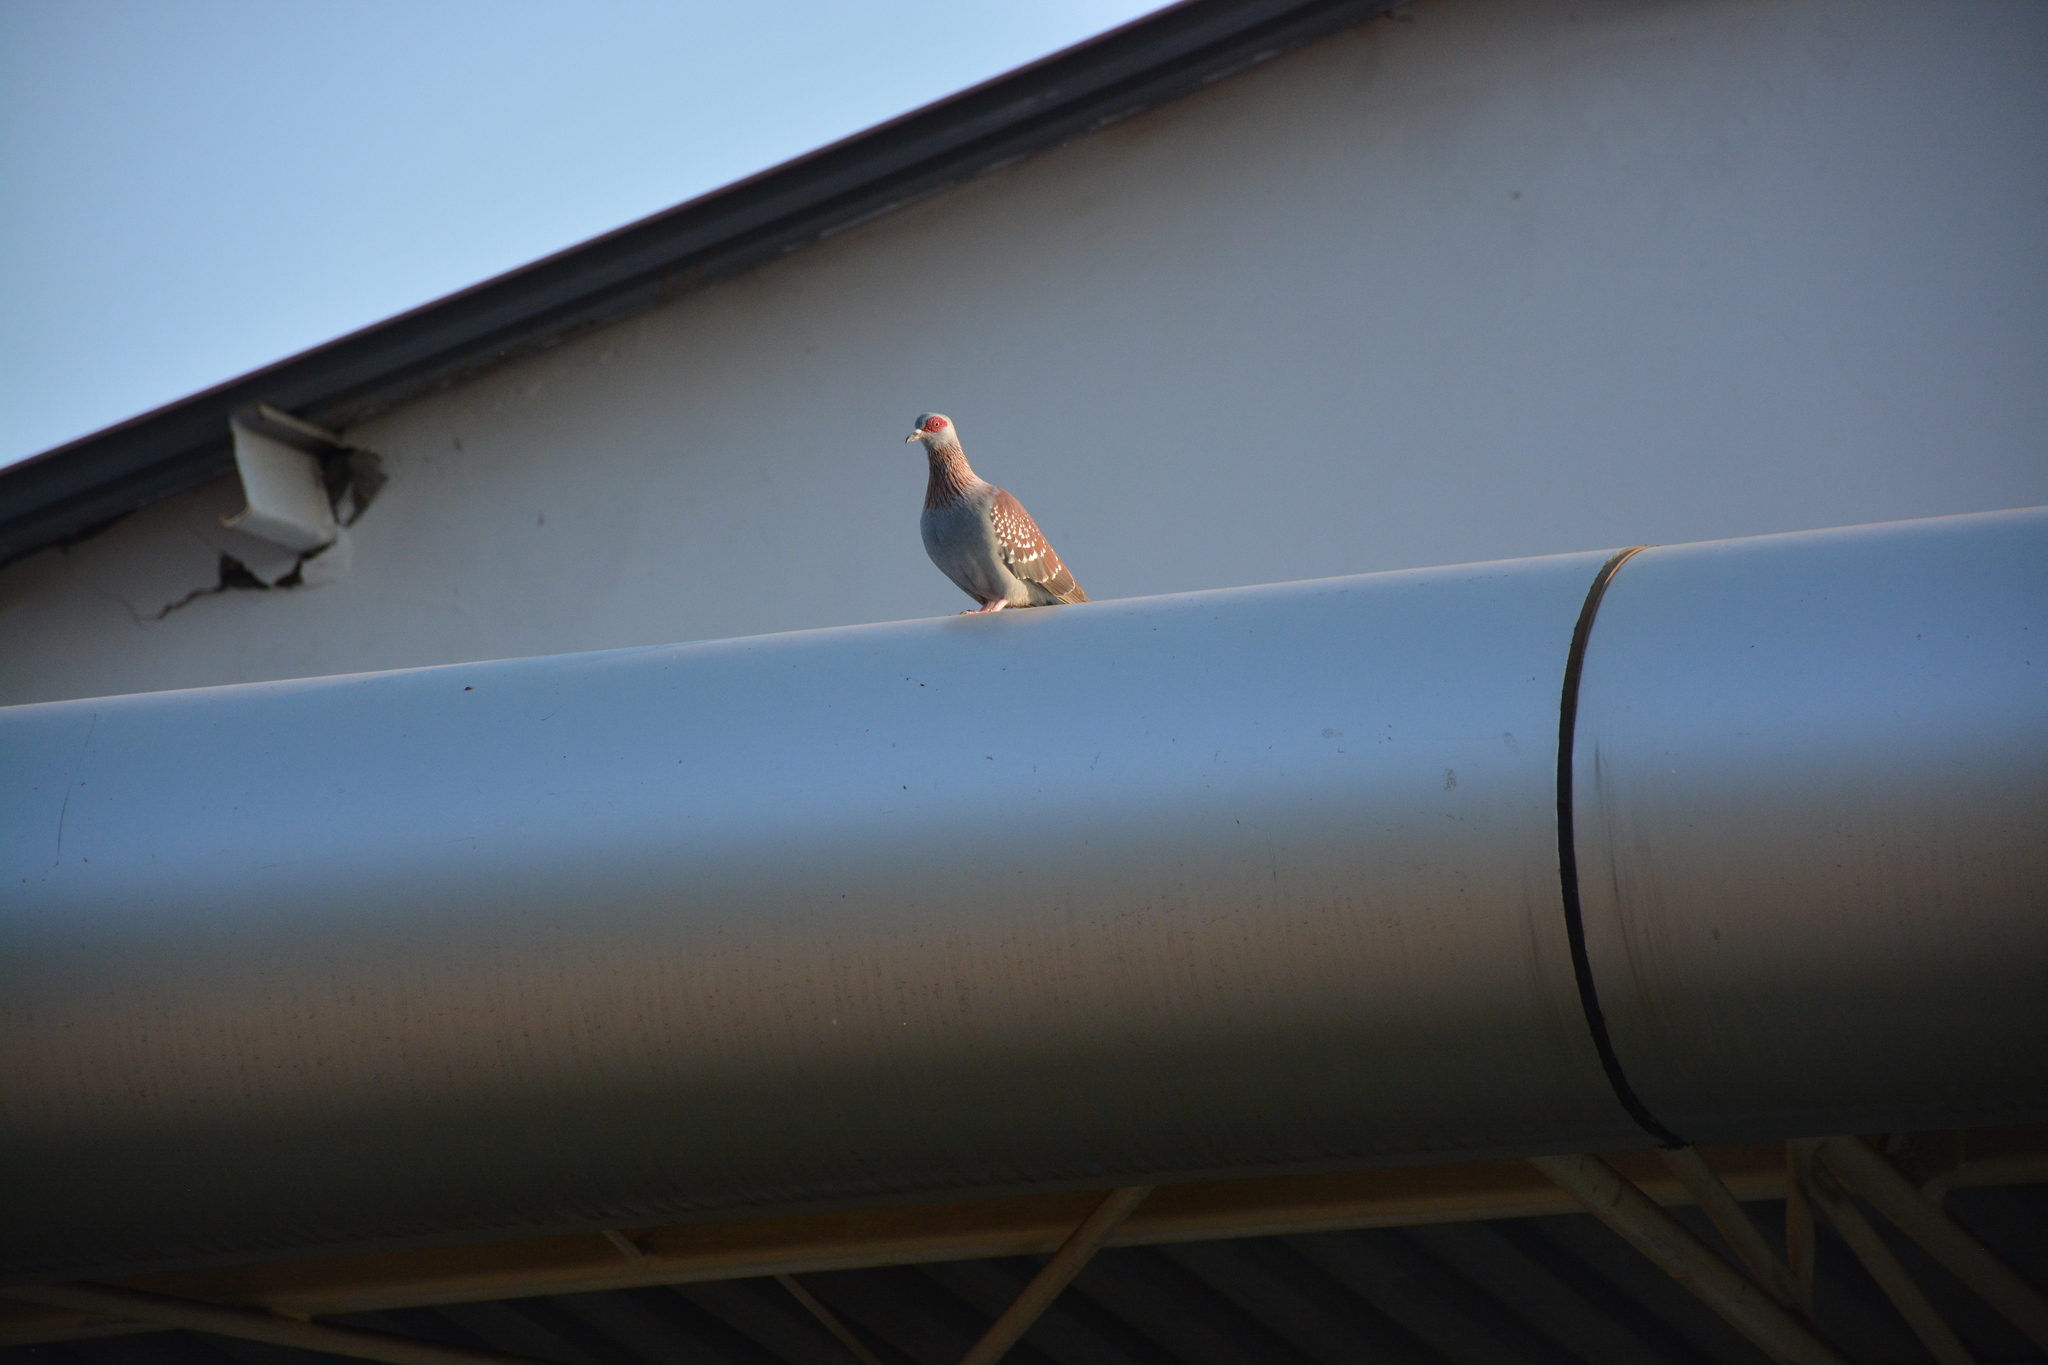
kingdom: Animalia
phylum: Chordata
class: Aves
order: Columbiformes
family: Columbidae
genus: Columba
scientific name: Columba guinea
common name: Speckled pigeon
